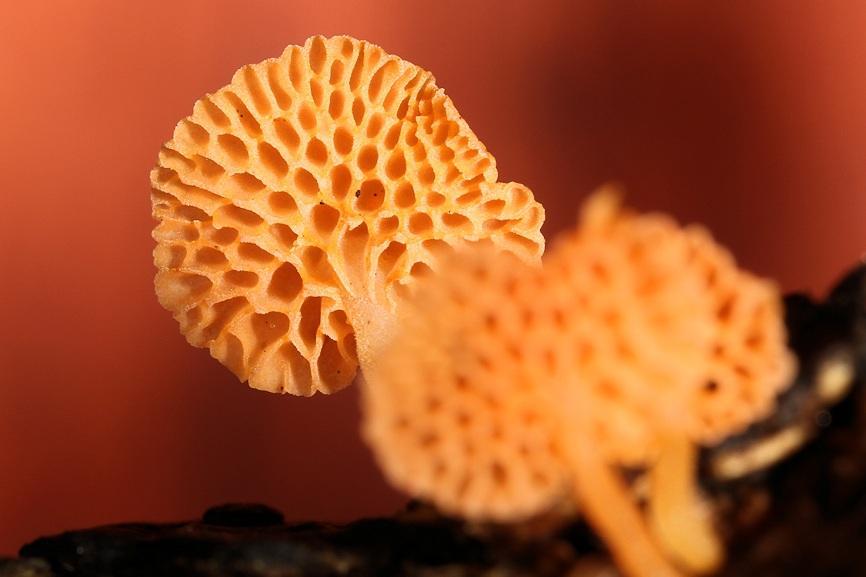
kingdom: Fungi
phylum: Basidiomycota
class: Agaricomycetes
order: Agaricales
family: Mycenaceae
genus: Favolaschia
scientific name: Favolaschia thwaitesii
